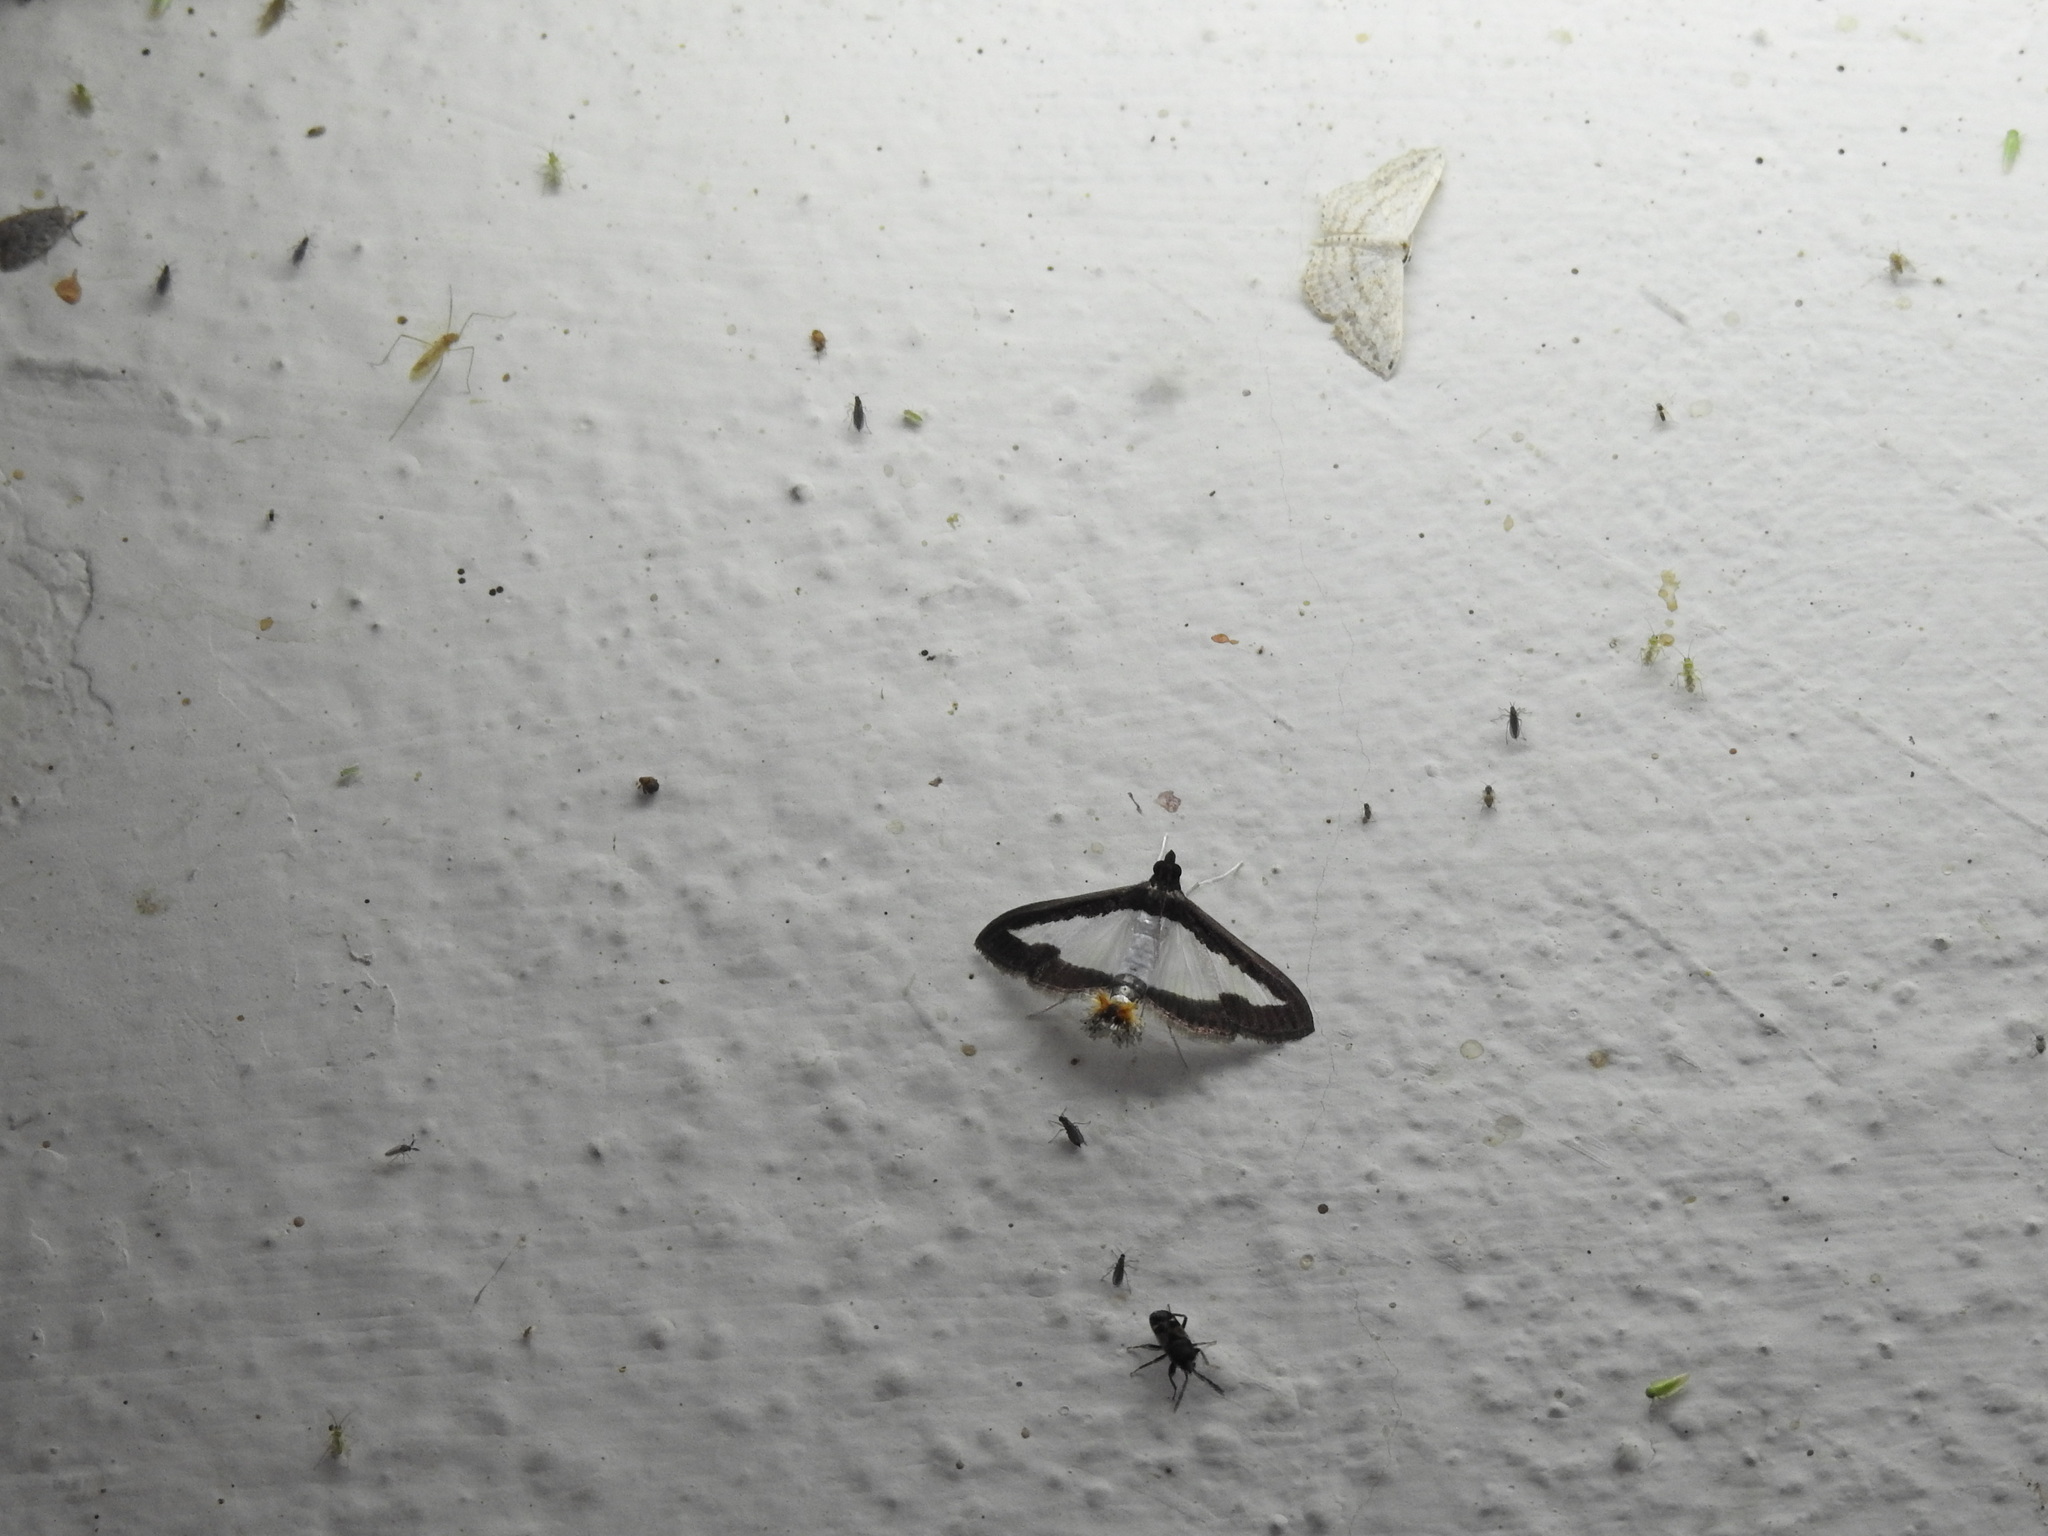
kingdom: Animalia
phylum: Arthropoda
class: Insecta
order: Lepidoptera
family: Crambidae
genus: Diaphania
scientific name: Diaphania indica
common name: Cucumber moth
